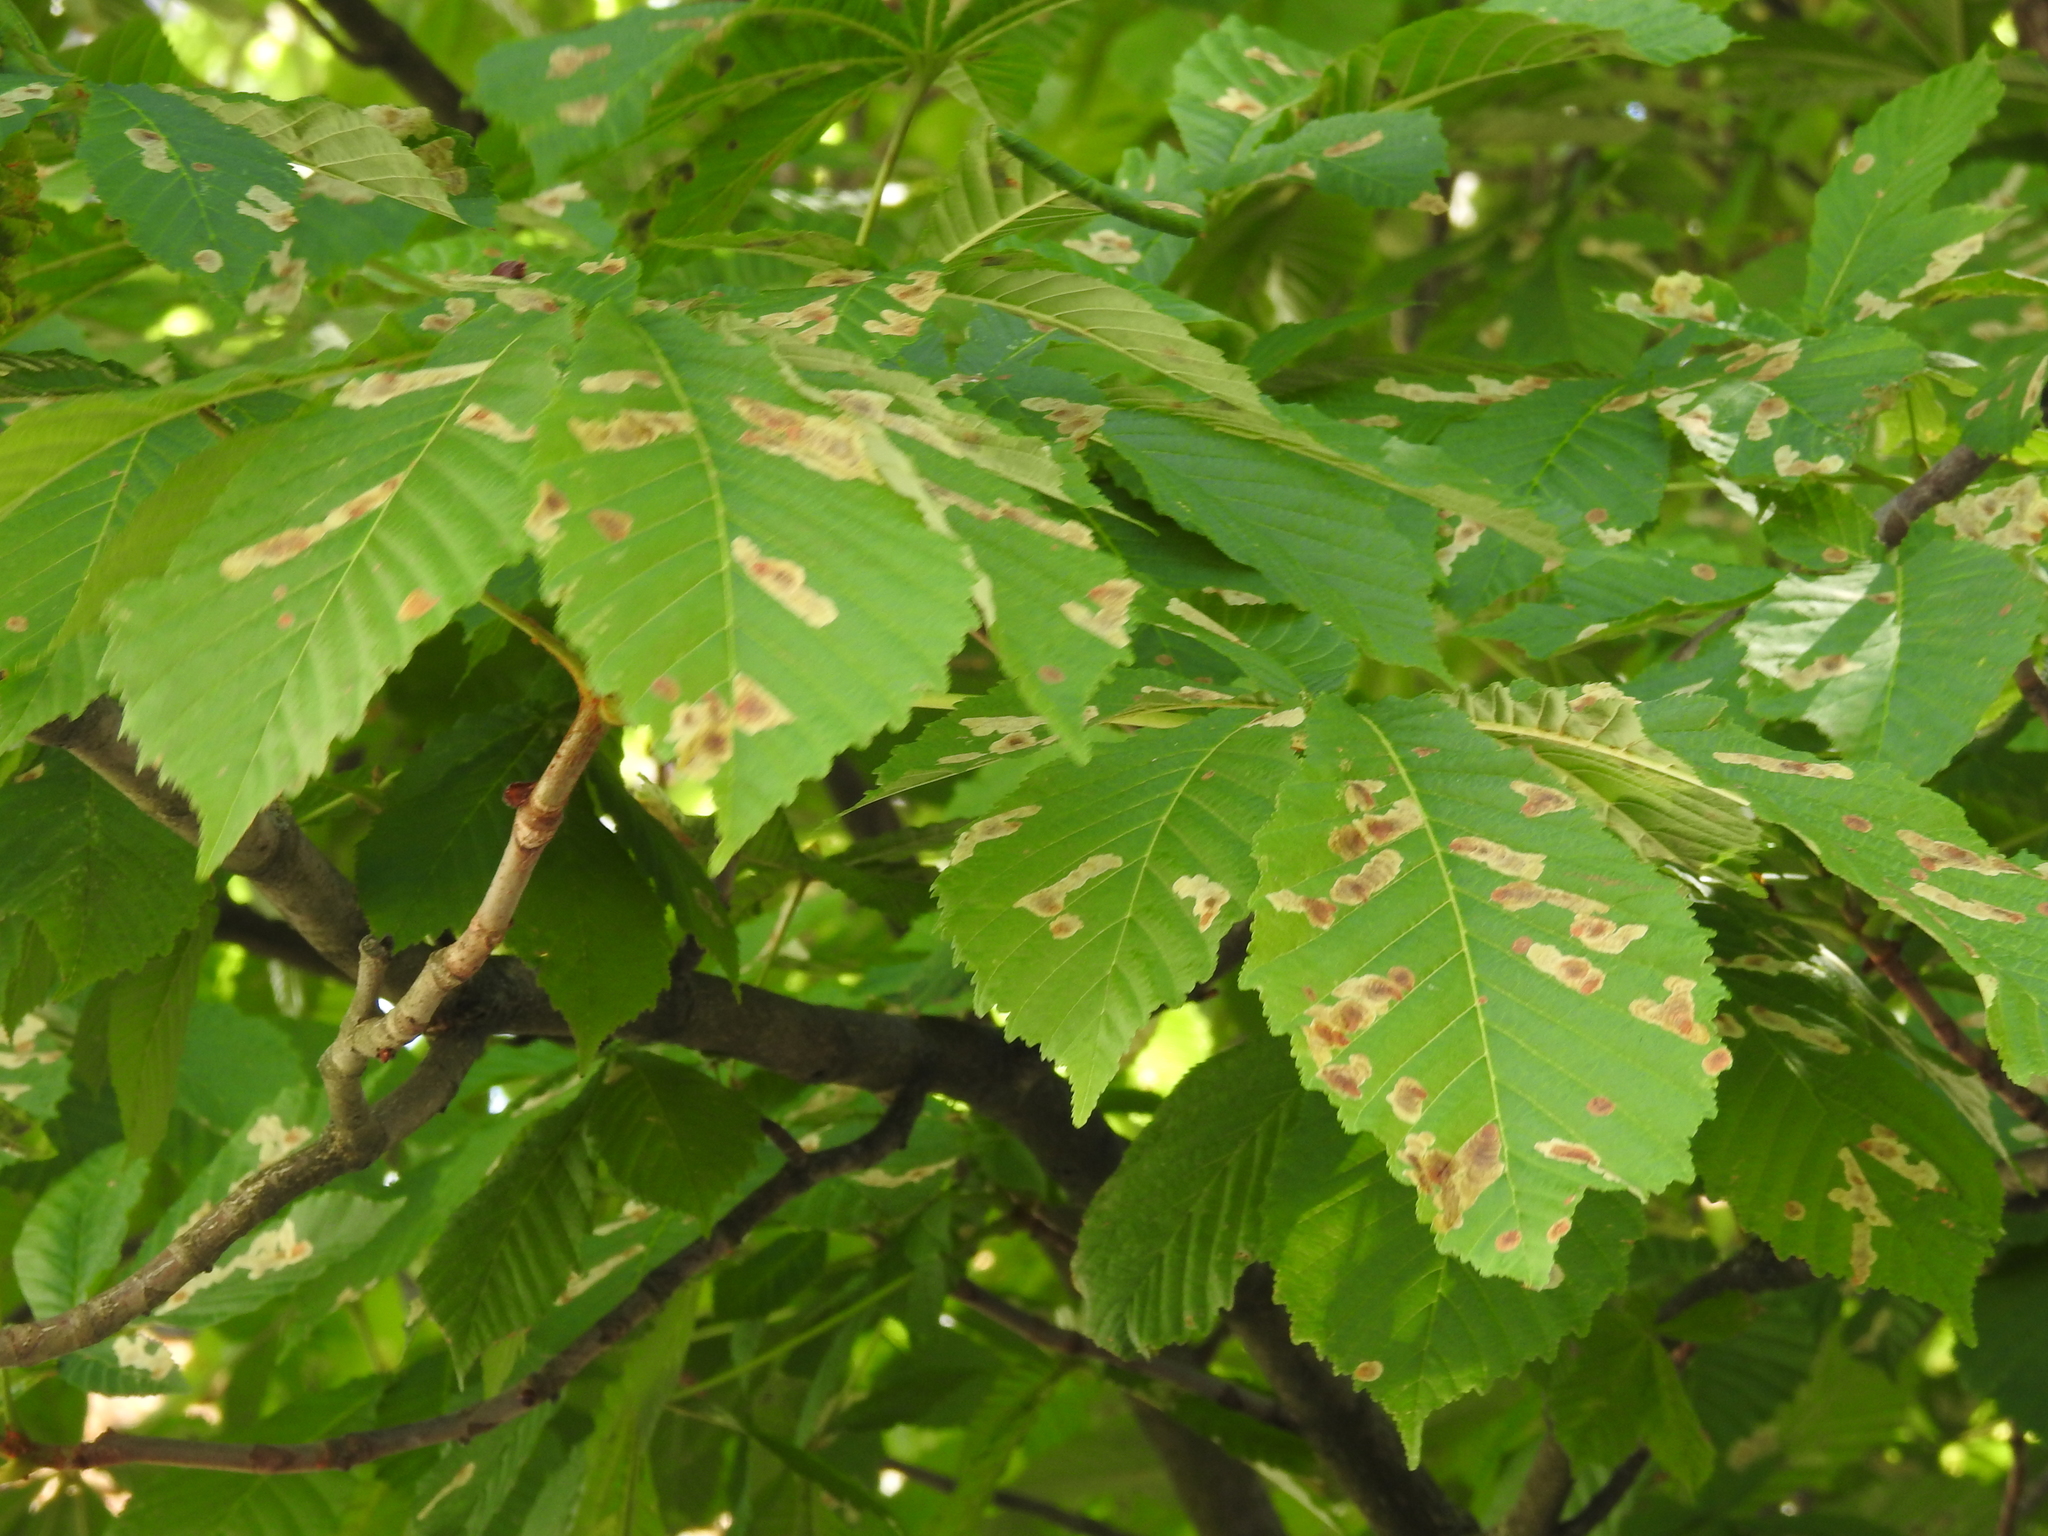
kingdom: Animalia
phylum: Arthropoda
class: Insecta
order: Lepidoptera
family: Gracillariidae
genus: Cameraria
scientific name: Cameraria ohridella
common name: Horse-chestnut leaf-miner
